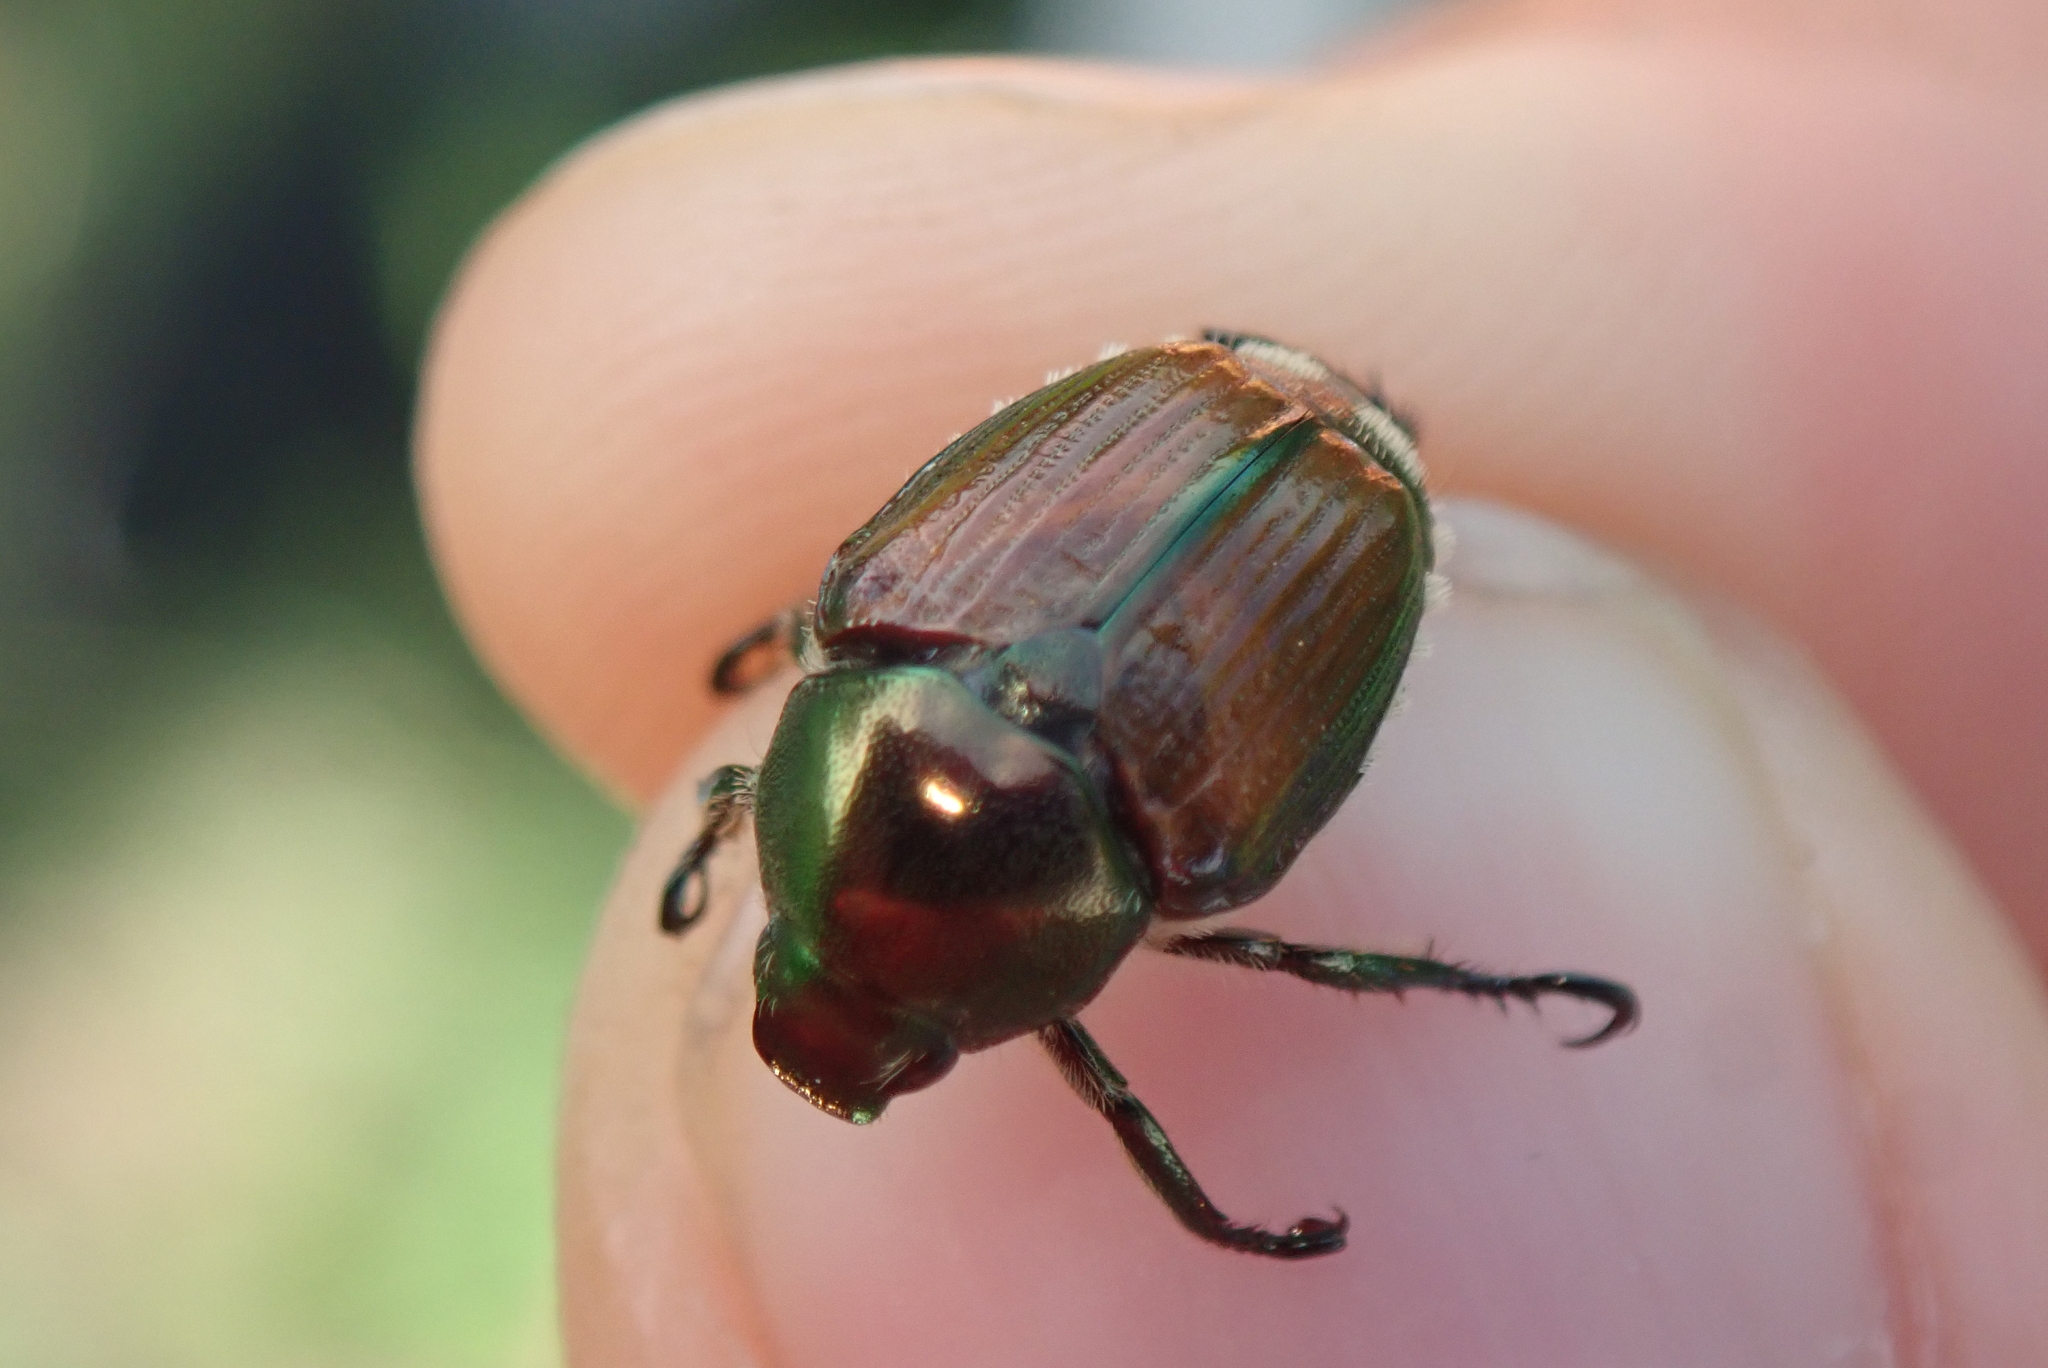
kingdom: Animalia
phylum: Arthropoda
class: Insecta
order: Coleoptera
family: Scarabaeidae
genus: Popillia
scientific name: Popillia japonica
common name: Japanese beetle
